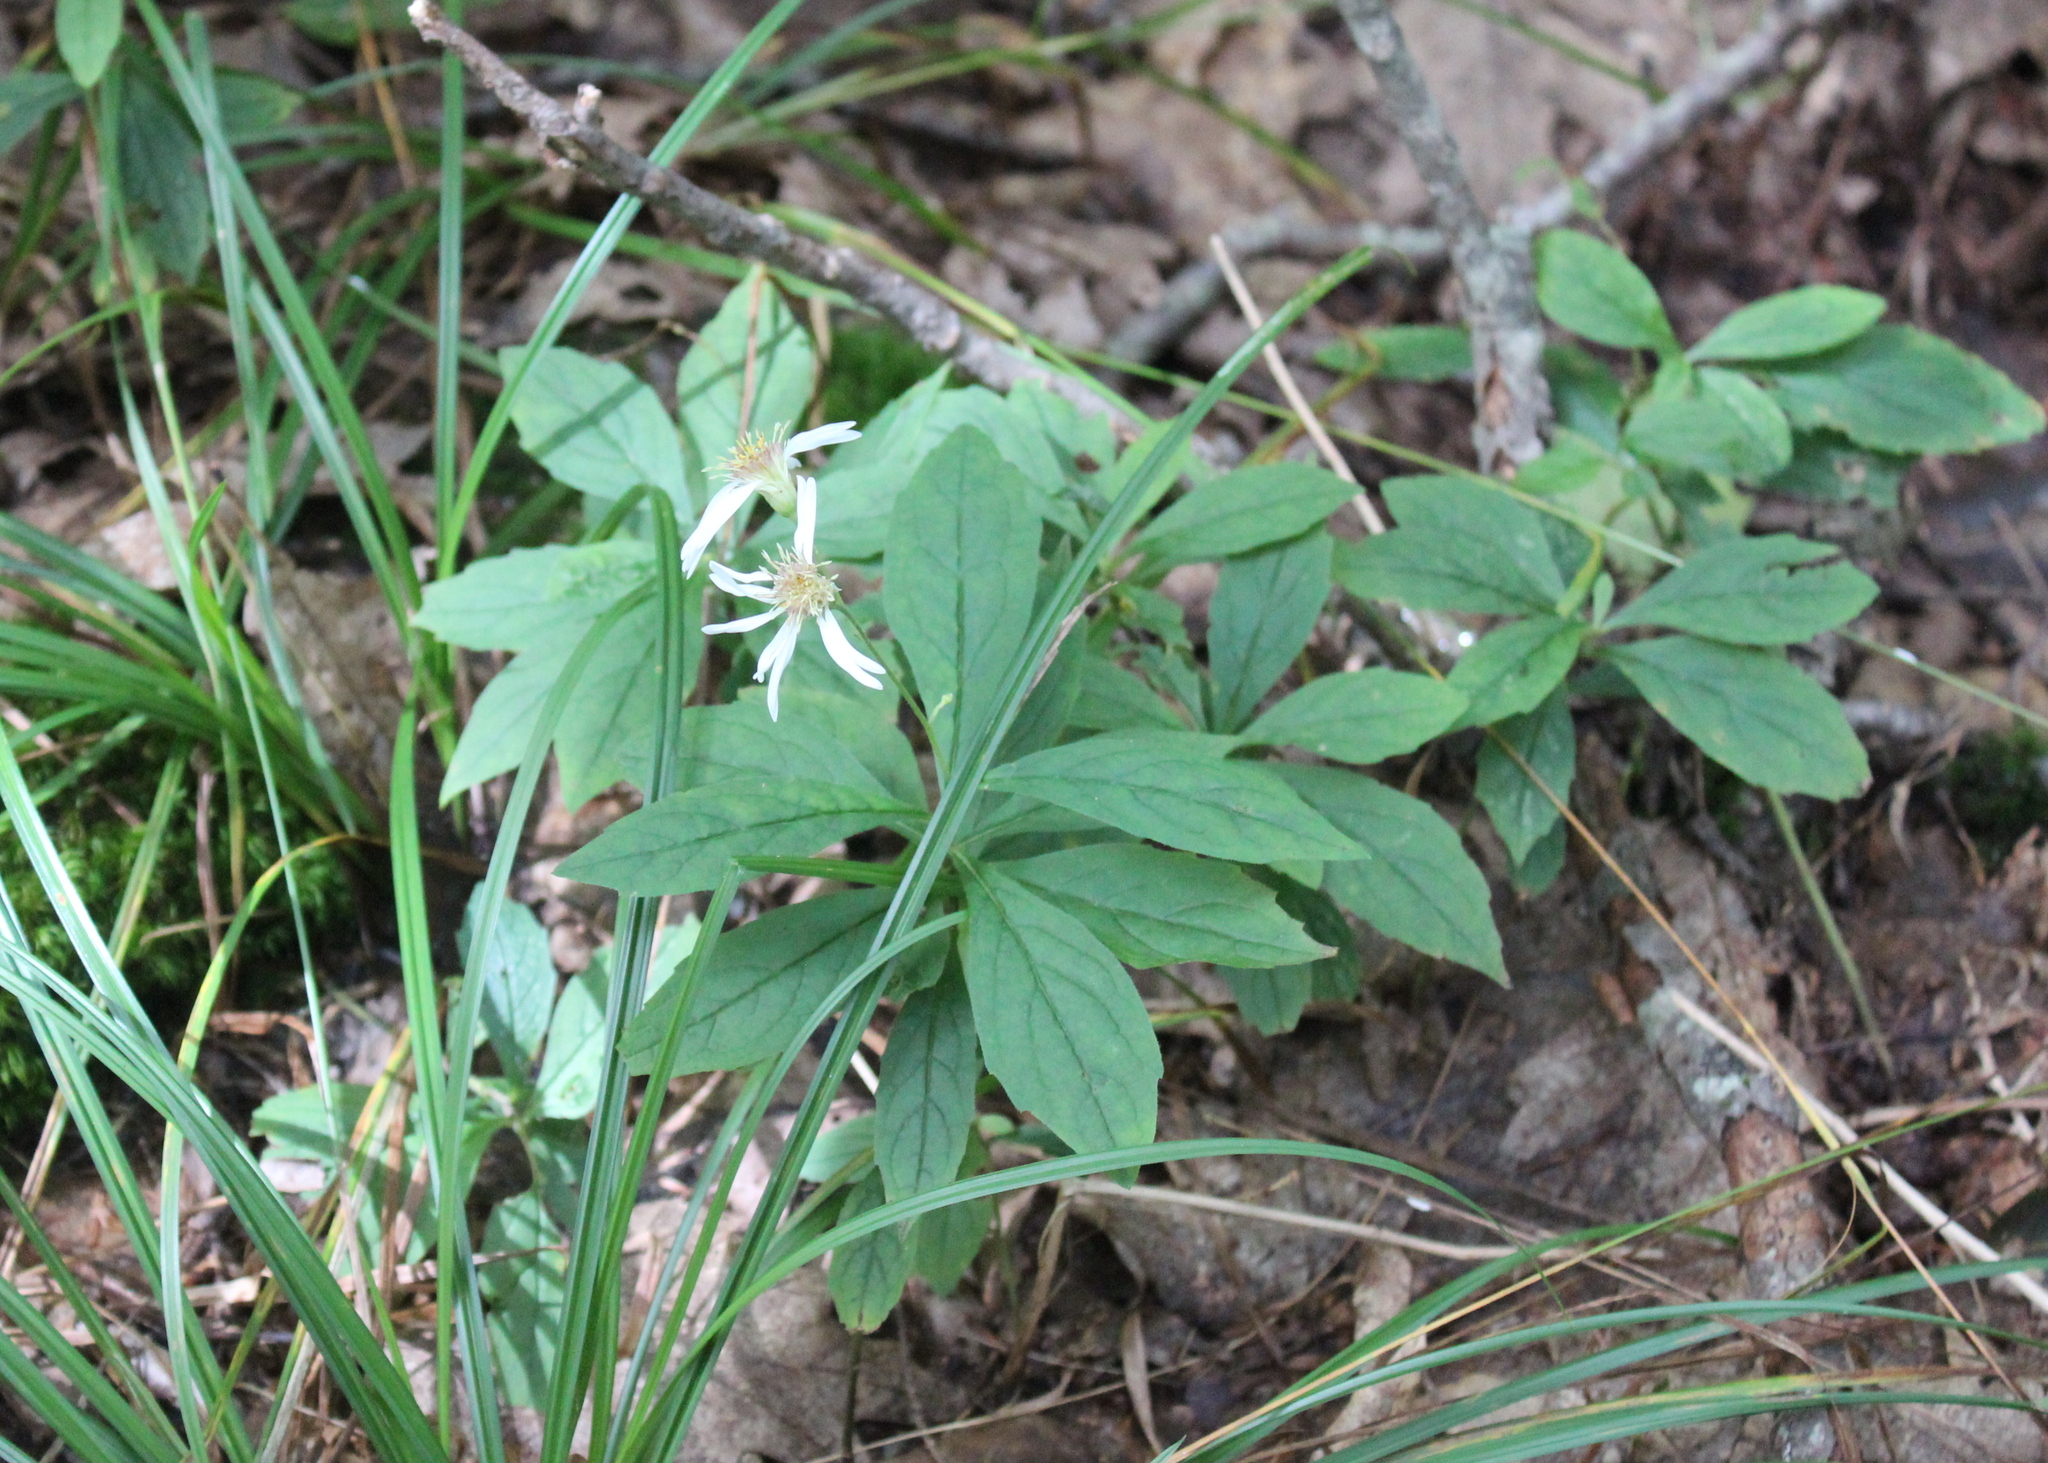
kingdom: Plantae
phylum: Tracheophyta
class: Magnoliopsida
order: Asterales
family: Asteraceae
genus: Oclemena
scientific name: Oclemena acuminata
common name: Mountain aster
